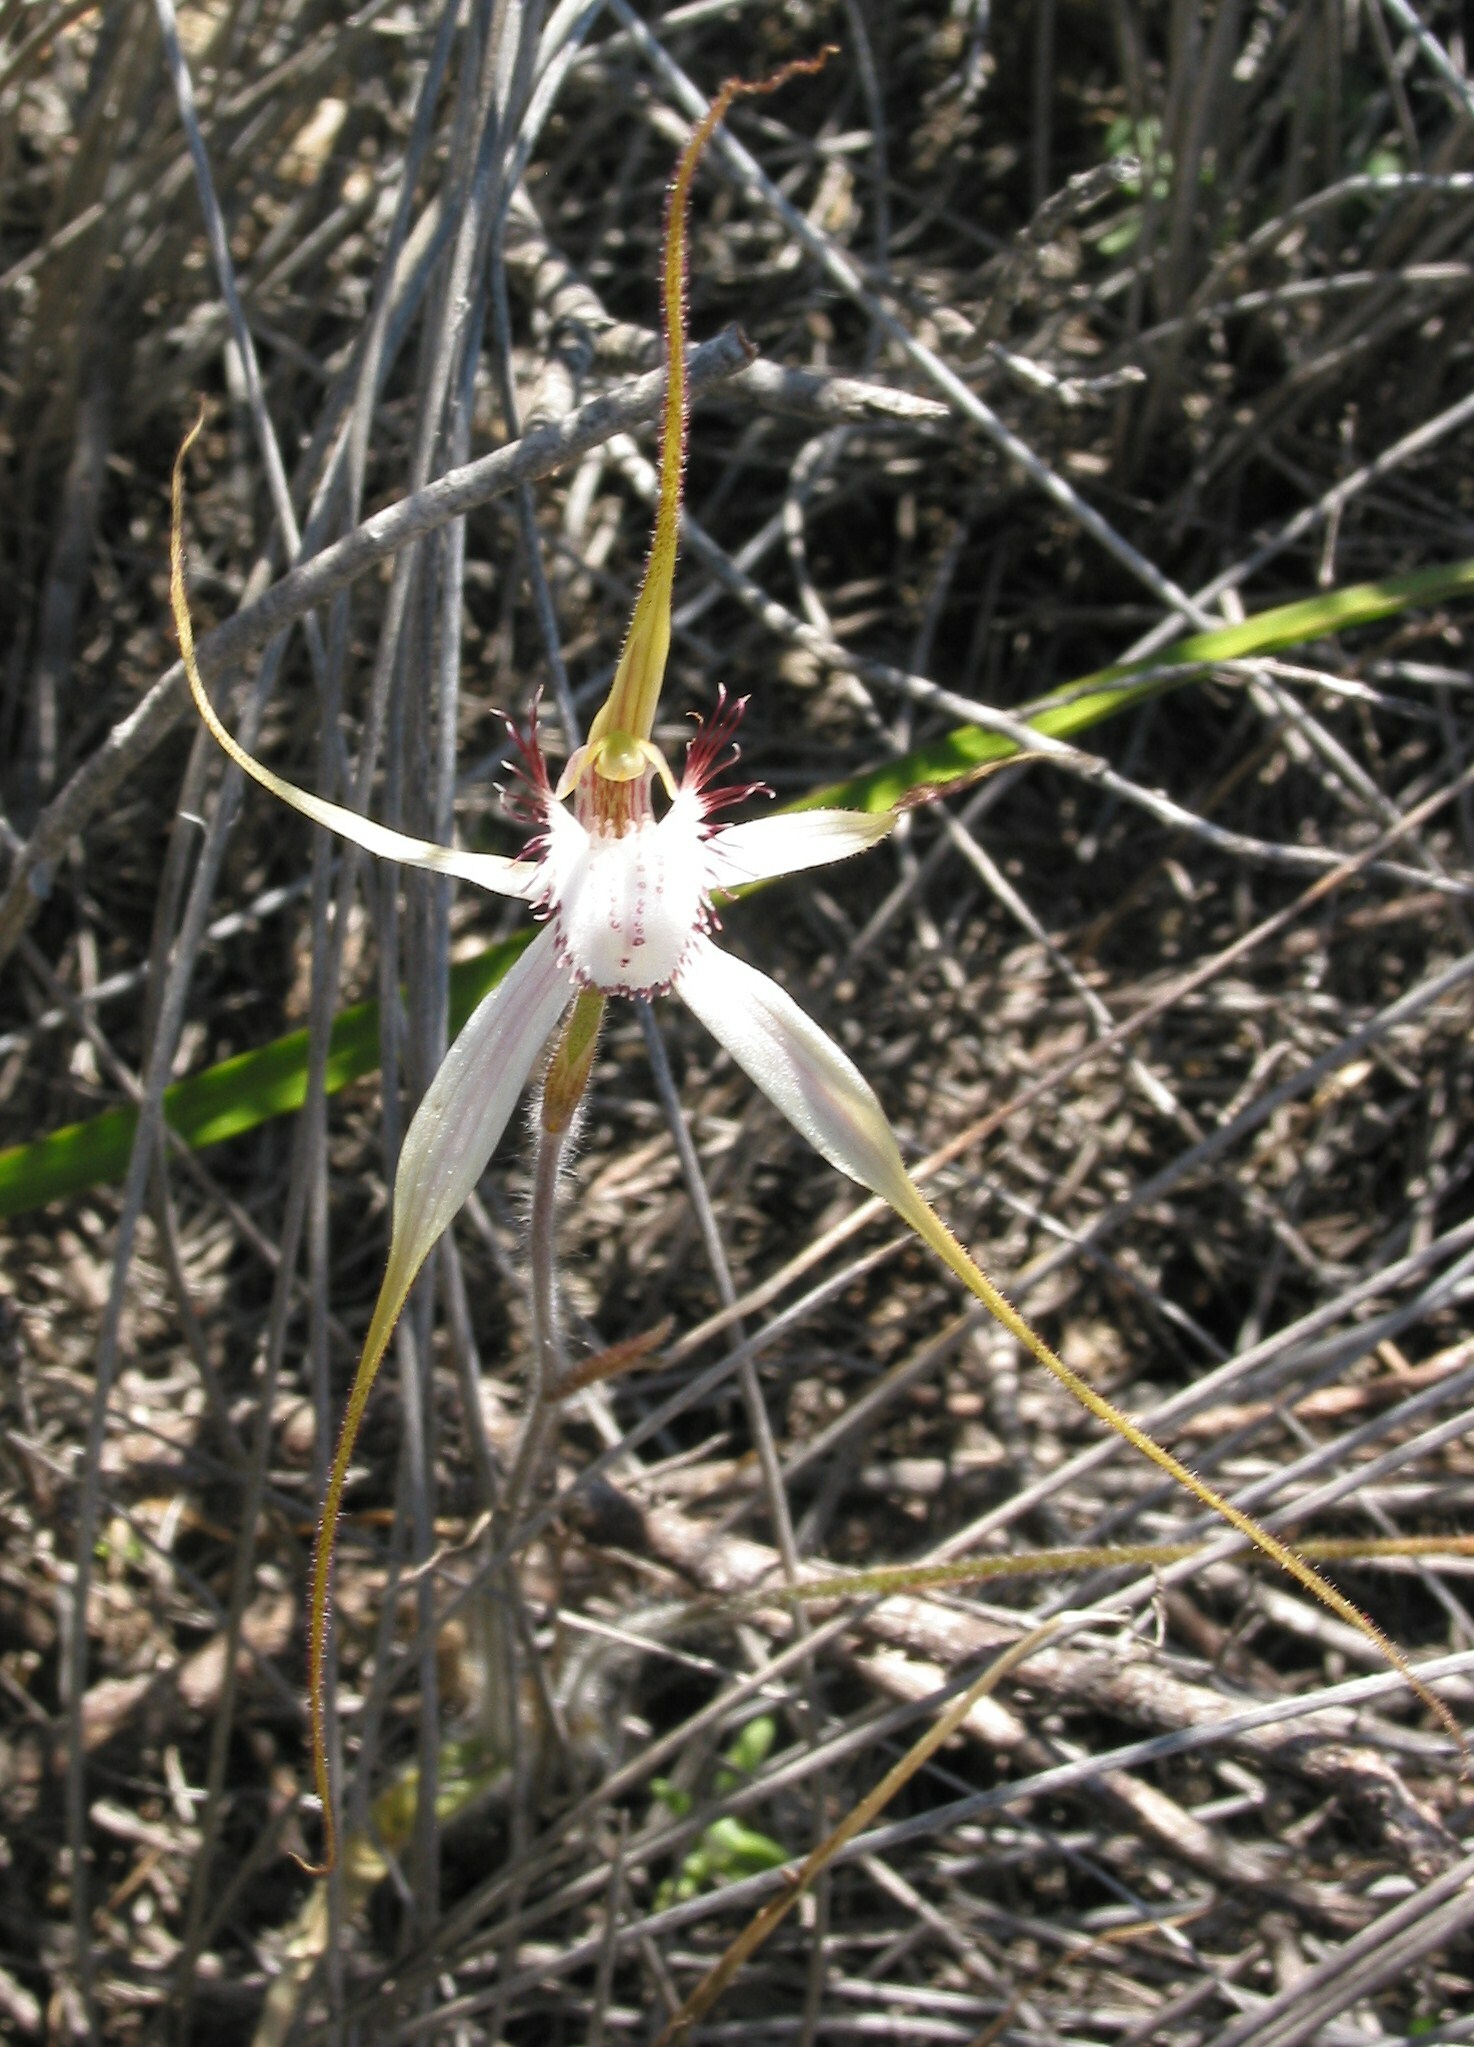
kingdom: Plantae
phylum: Tracheophyta
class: Liliopsida
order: Asparagales
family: Orchidaceae
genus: Caladenia
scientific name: Caladenia longicauda
